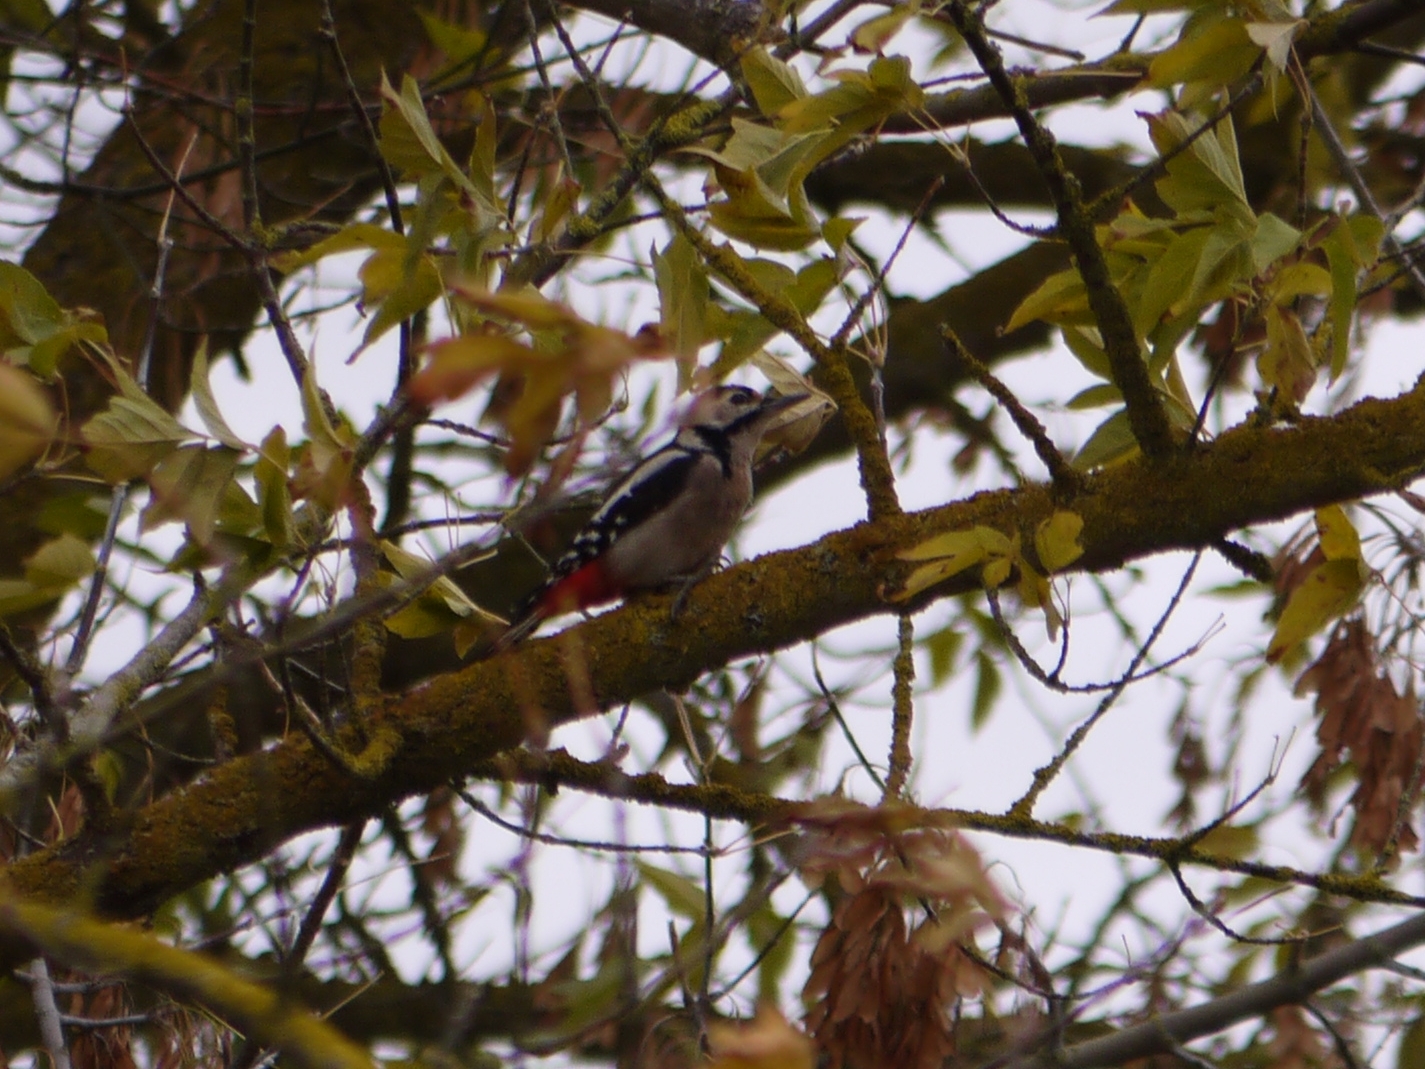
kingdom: Animalia
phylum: Chordata
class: Aves
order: Piciformes
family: Picidae
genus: Dendrocopos
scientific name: Dendrocopos major
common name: Great spotted woodpecker
